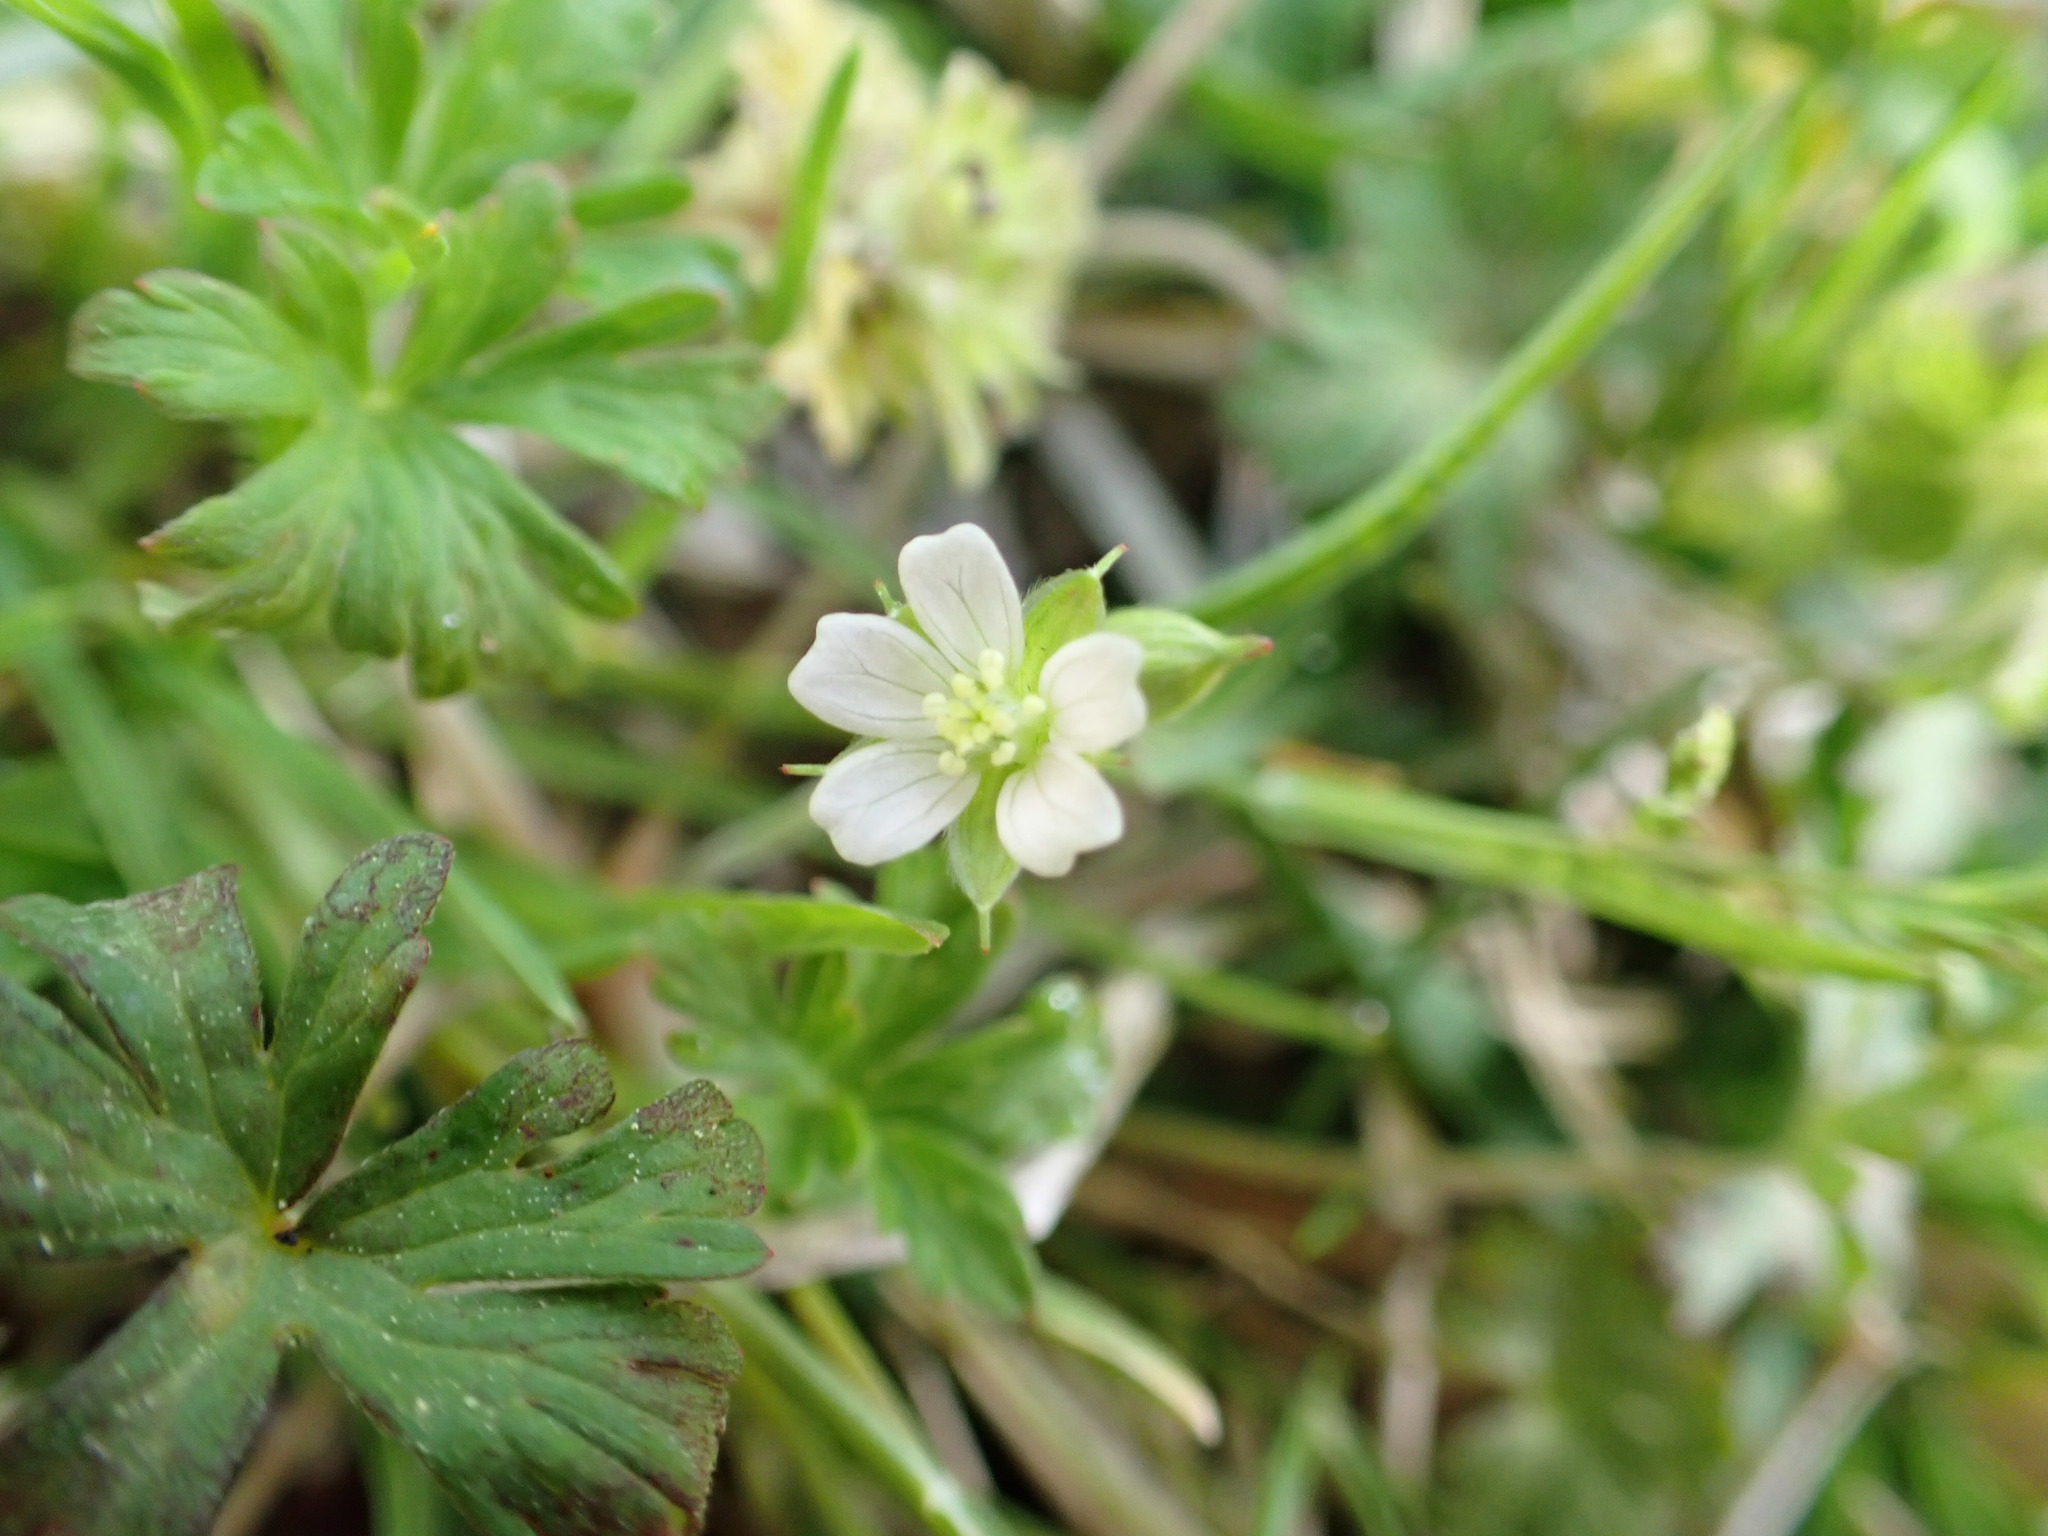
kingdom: Plantae
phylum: Tracheophyta
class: Magnoliopsida
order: Geraniales
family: Geraniaceae
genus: Geranium
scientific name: Geranium carolinianum
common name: Carolina crane's-bill
